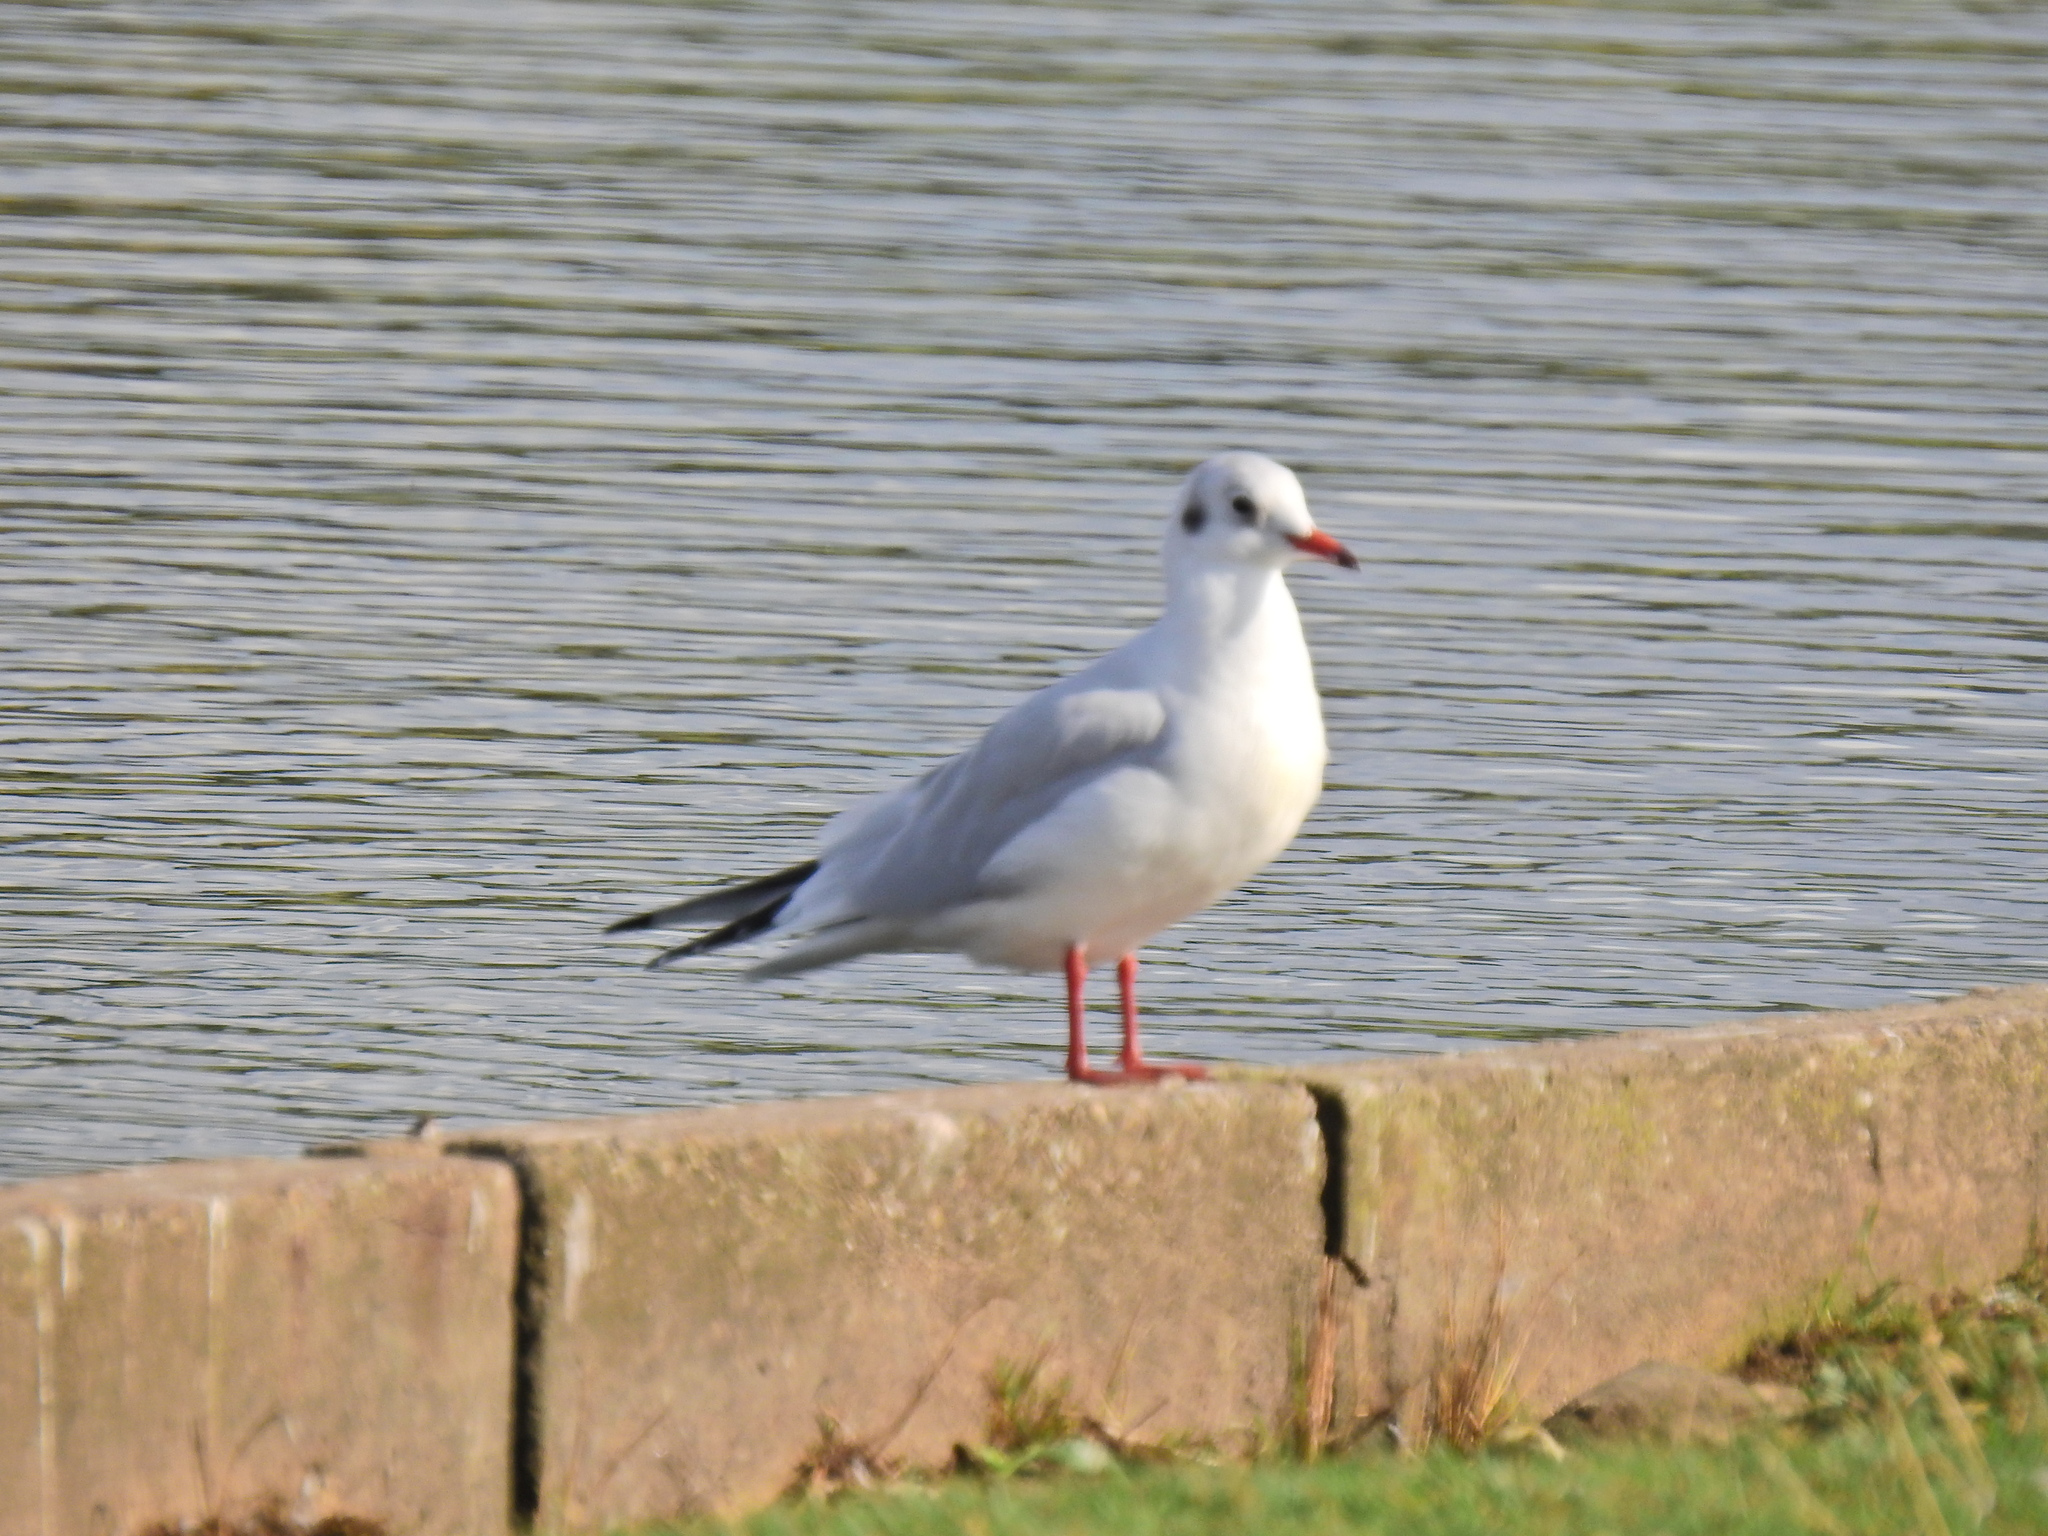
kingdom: Animalia
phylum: Chordata
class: Aves
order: Charadriiformes
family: Laridae
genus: Chroicocephalus
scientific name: Chroicocephalus ridibundus
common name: Black-headed gull
